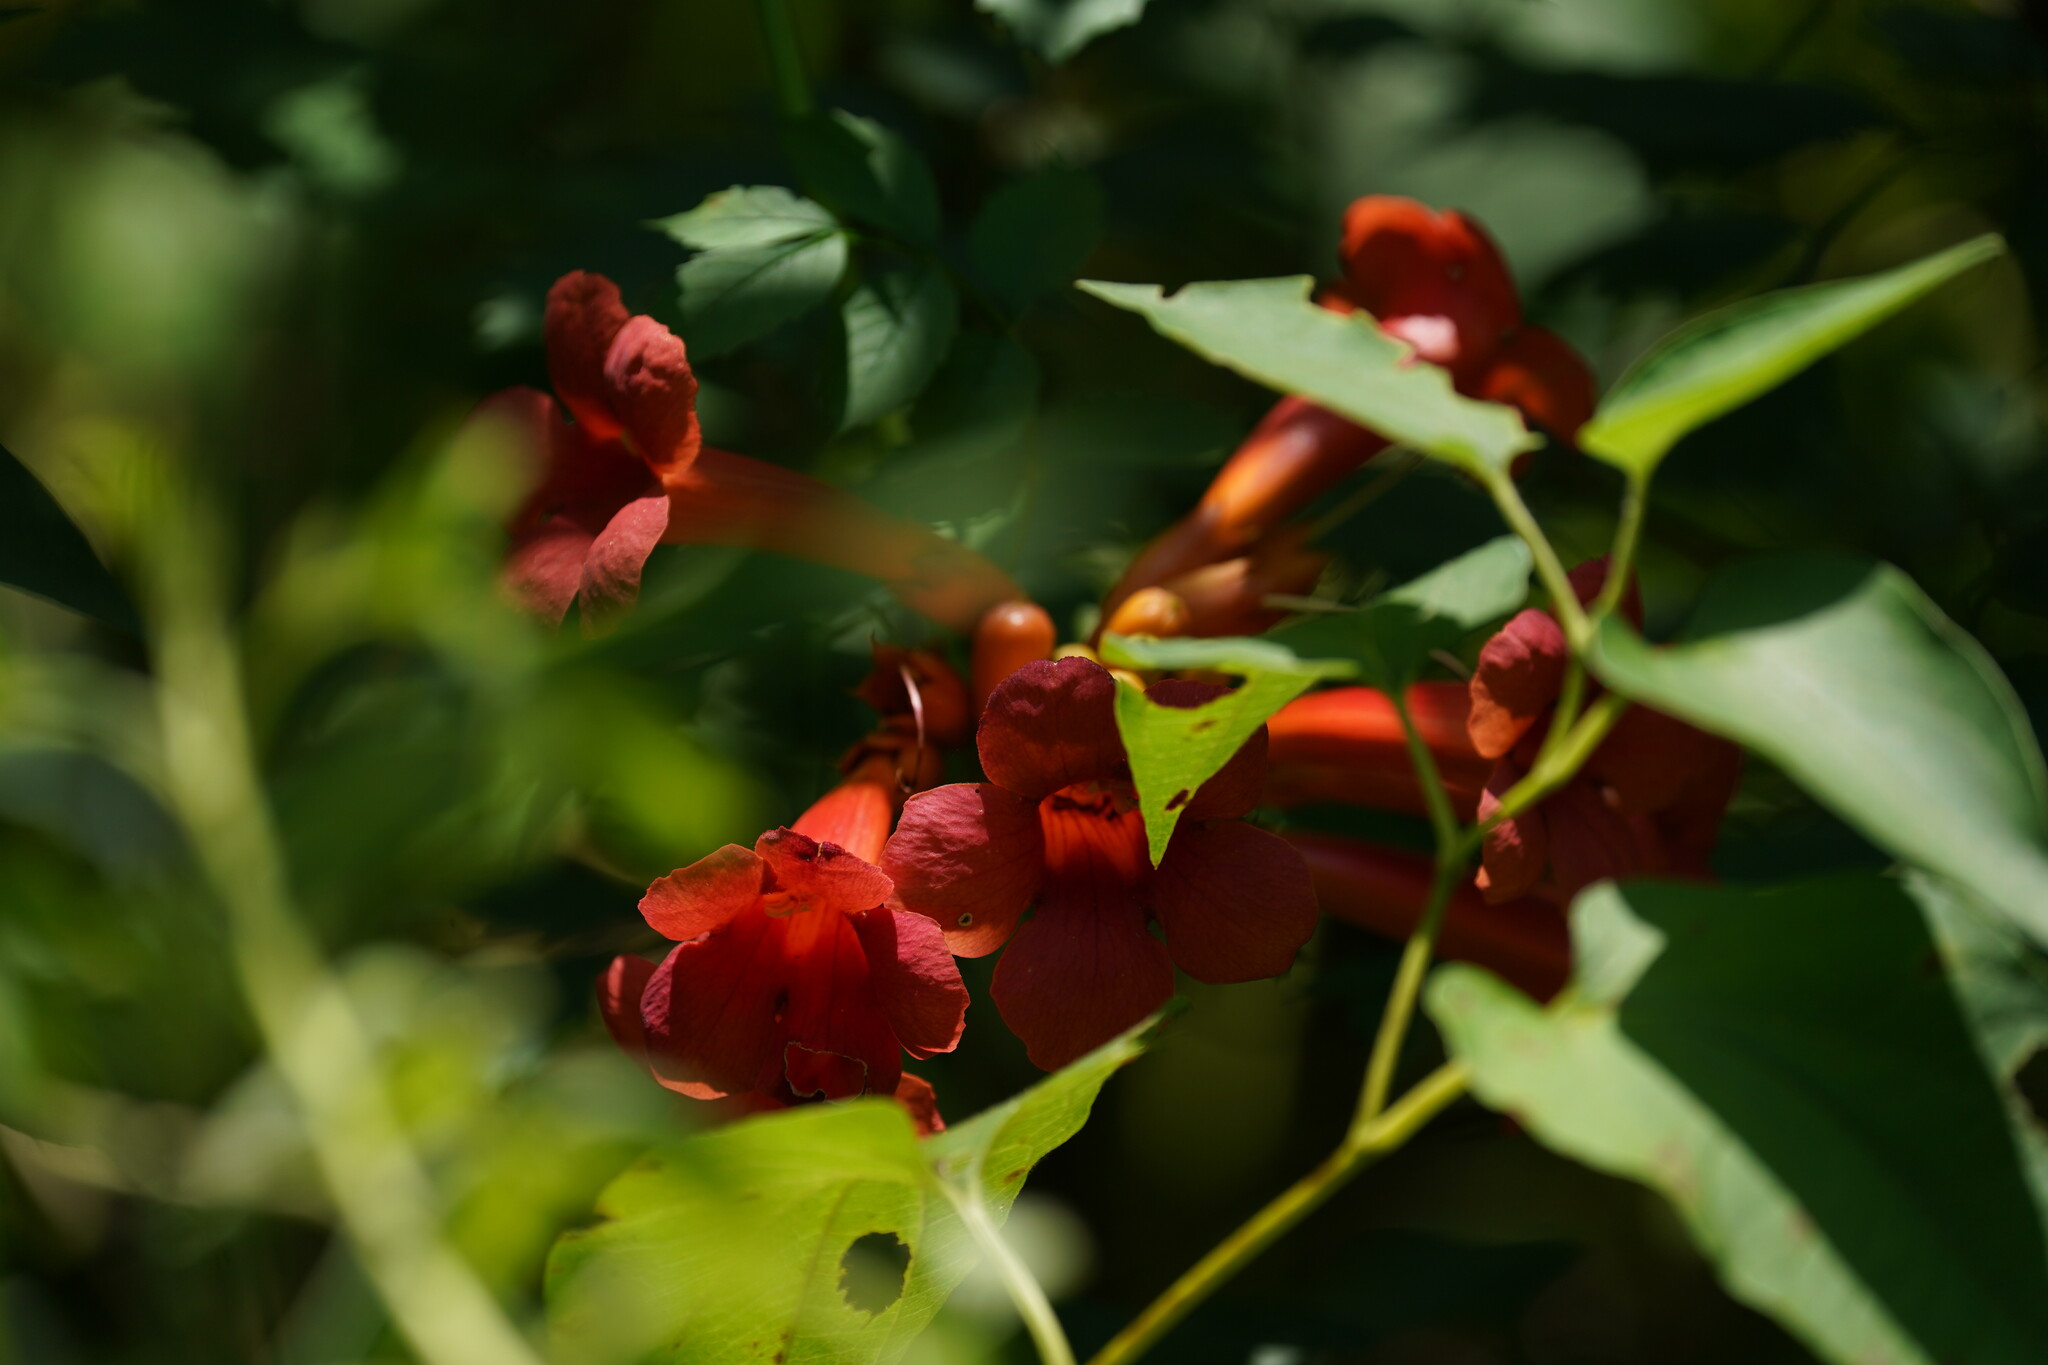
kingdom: Plantae
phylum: Tracheophyta
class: Magnoliopsida
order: Lamiales
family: Bignoniaceae
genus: Campsis
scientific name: Campsis radicans
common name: Trumpet-creeper
